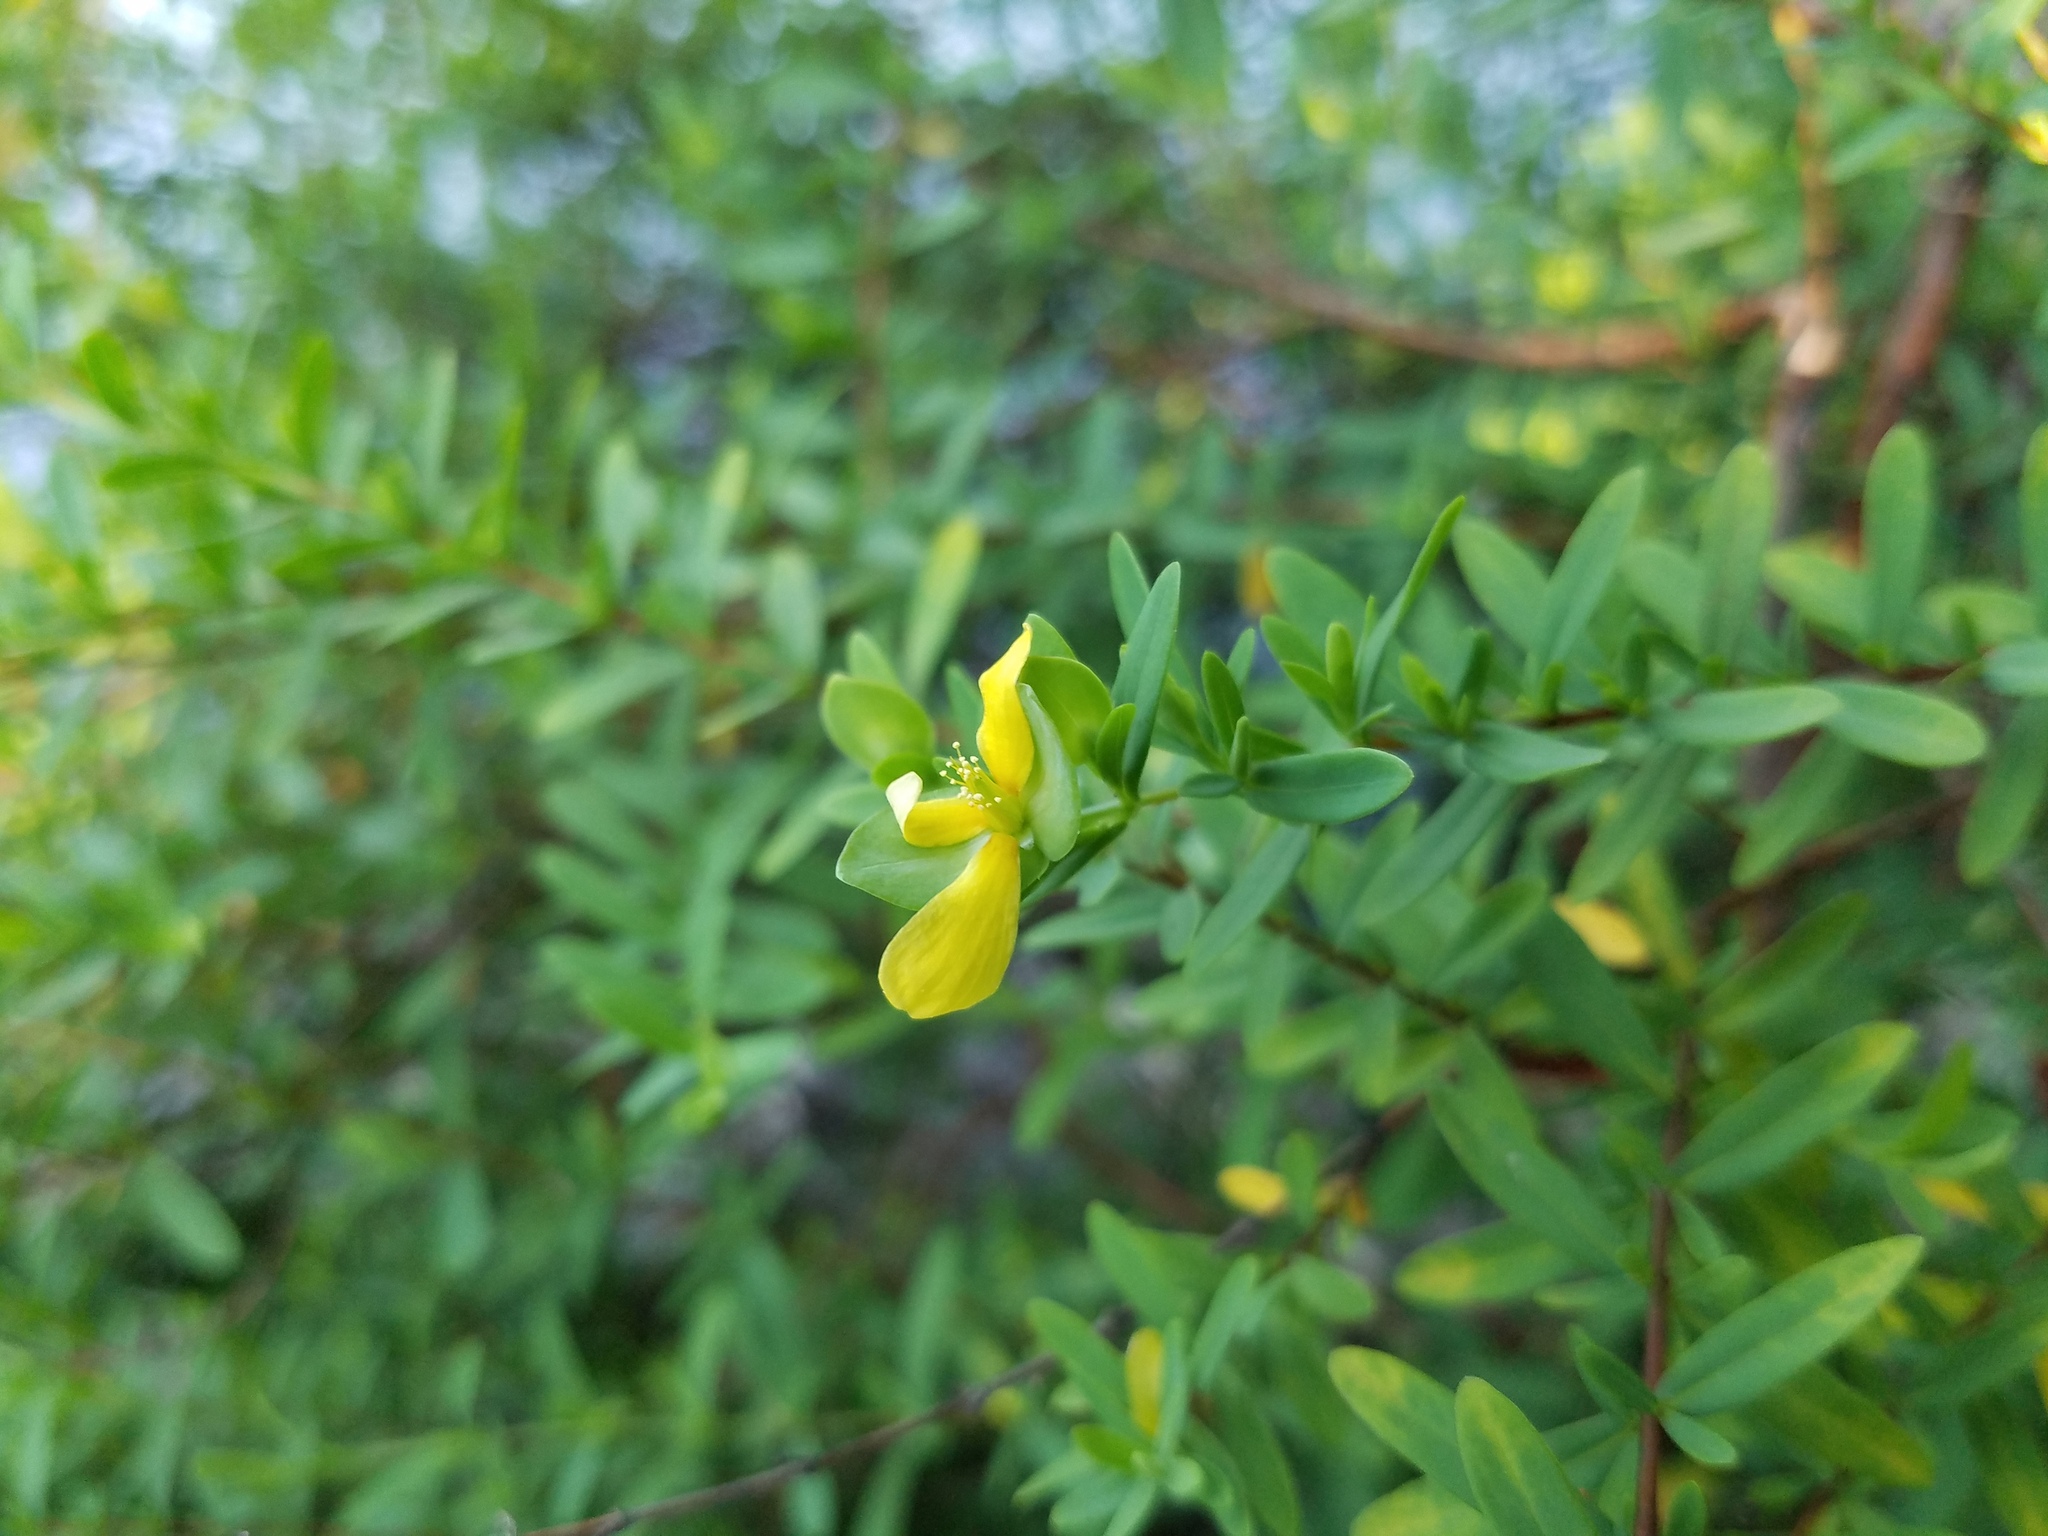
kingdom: Plantae
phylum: Tracheophyta
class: Magnoliopsida
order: Malpighiales
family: Hypericaceae
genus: Hypericum
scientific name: Hypericum hypericoides
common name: St. andrew's cross
